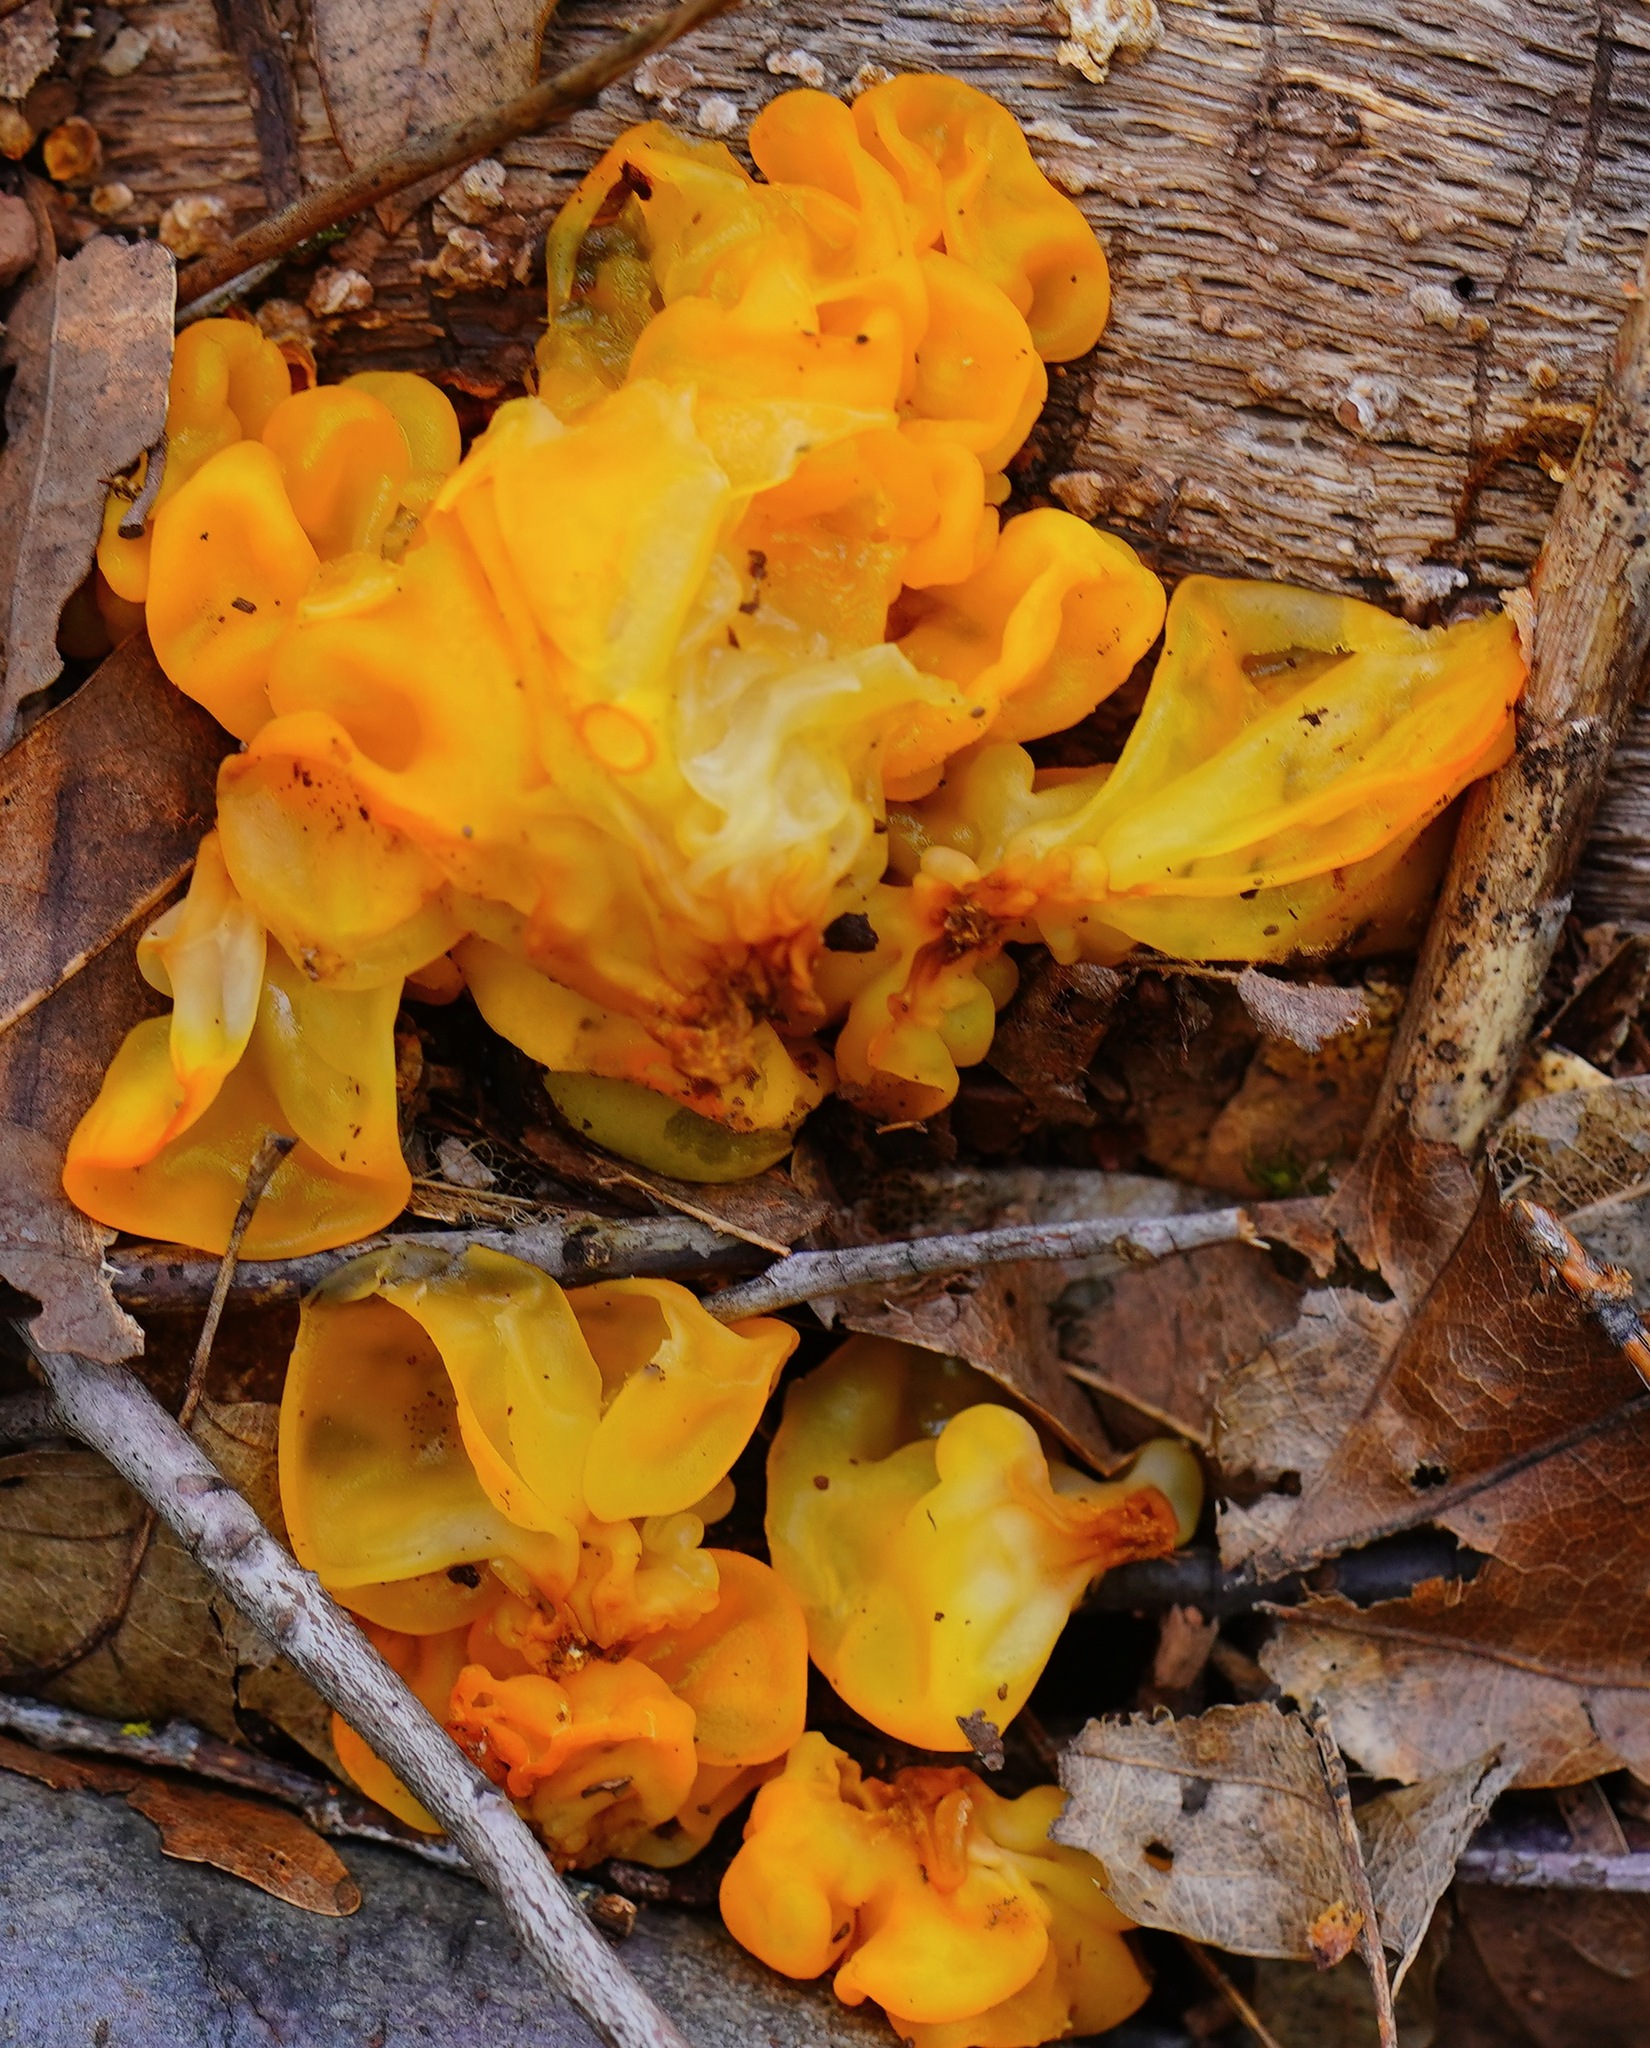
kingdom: Fungi
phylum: Basidiomycota
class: Tremellomycetes
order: Tremellales
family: Naemateliaceae
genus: Naematelia
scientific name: Naematelia aurantia
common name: Golden ear
